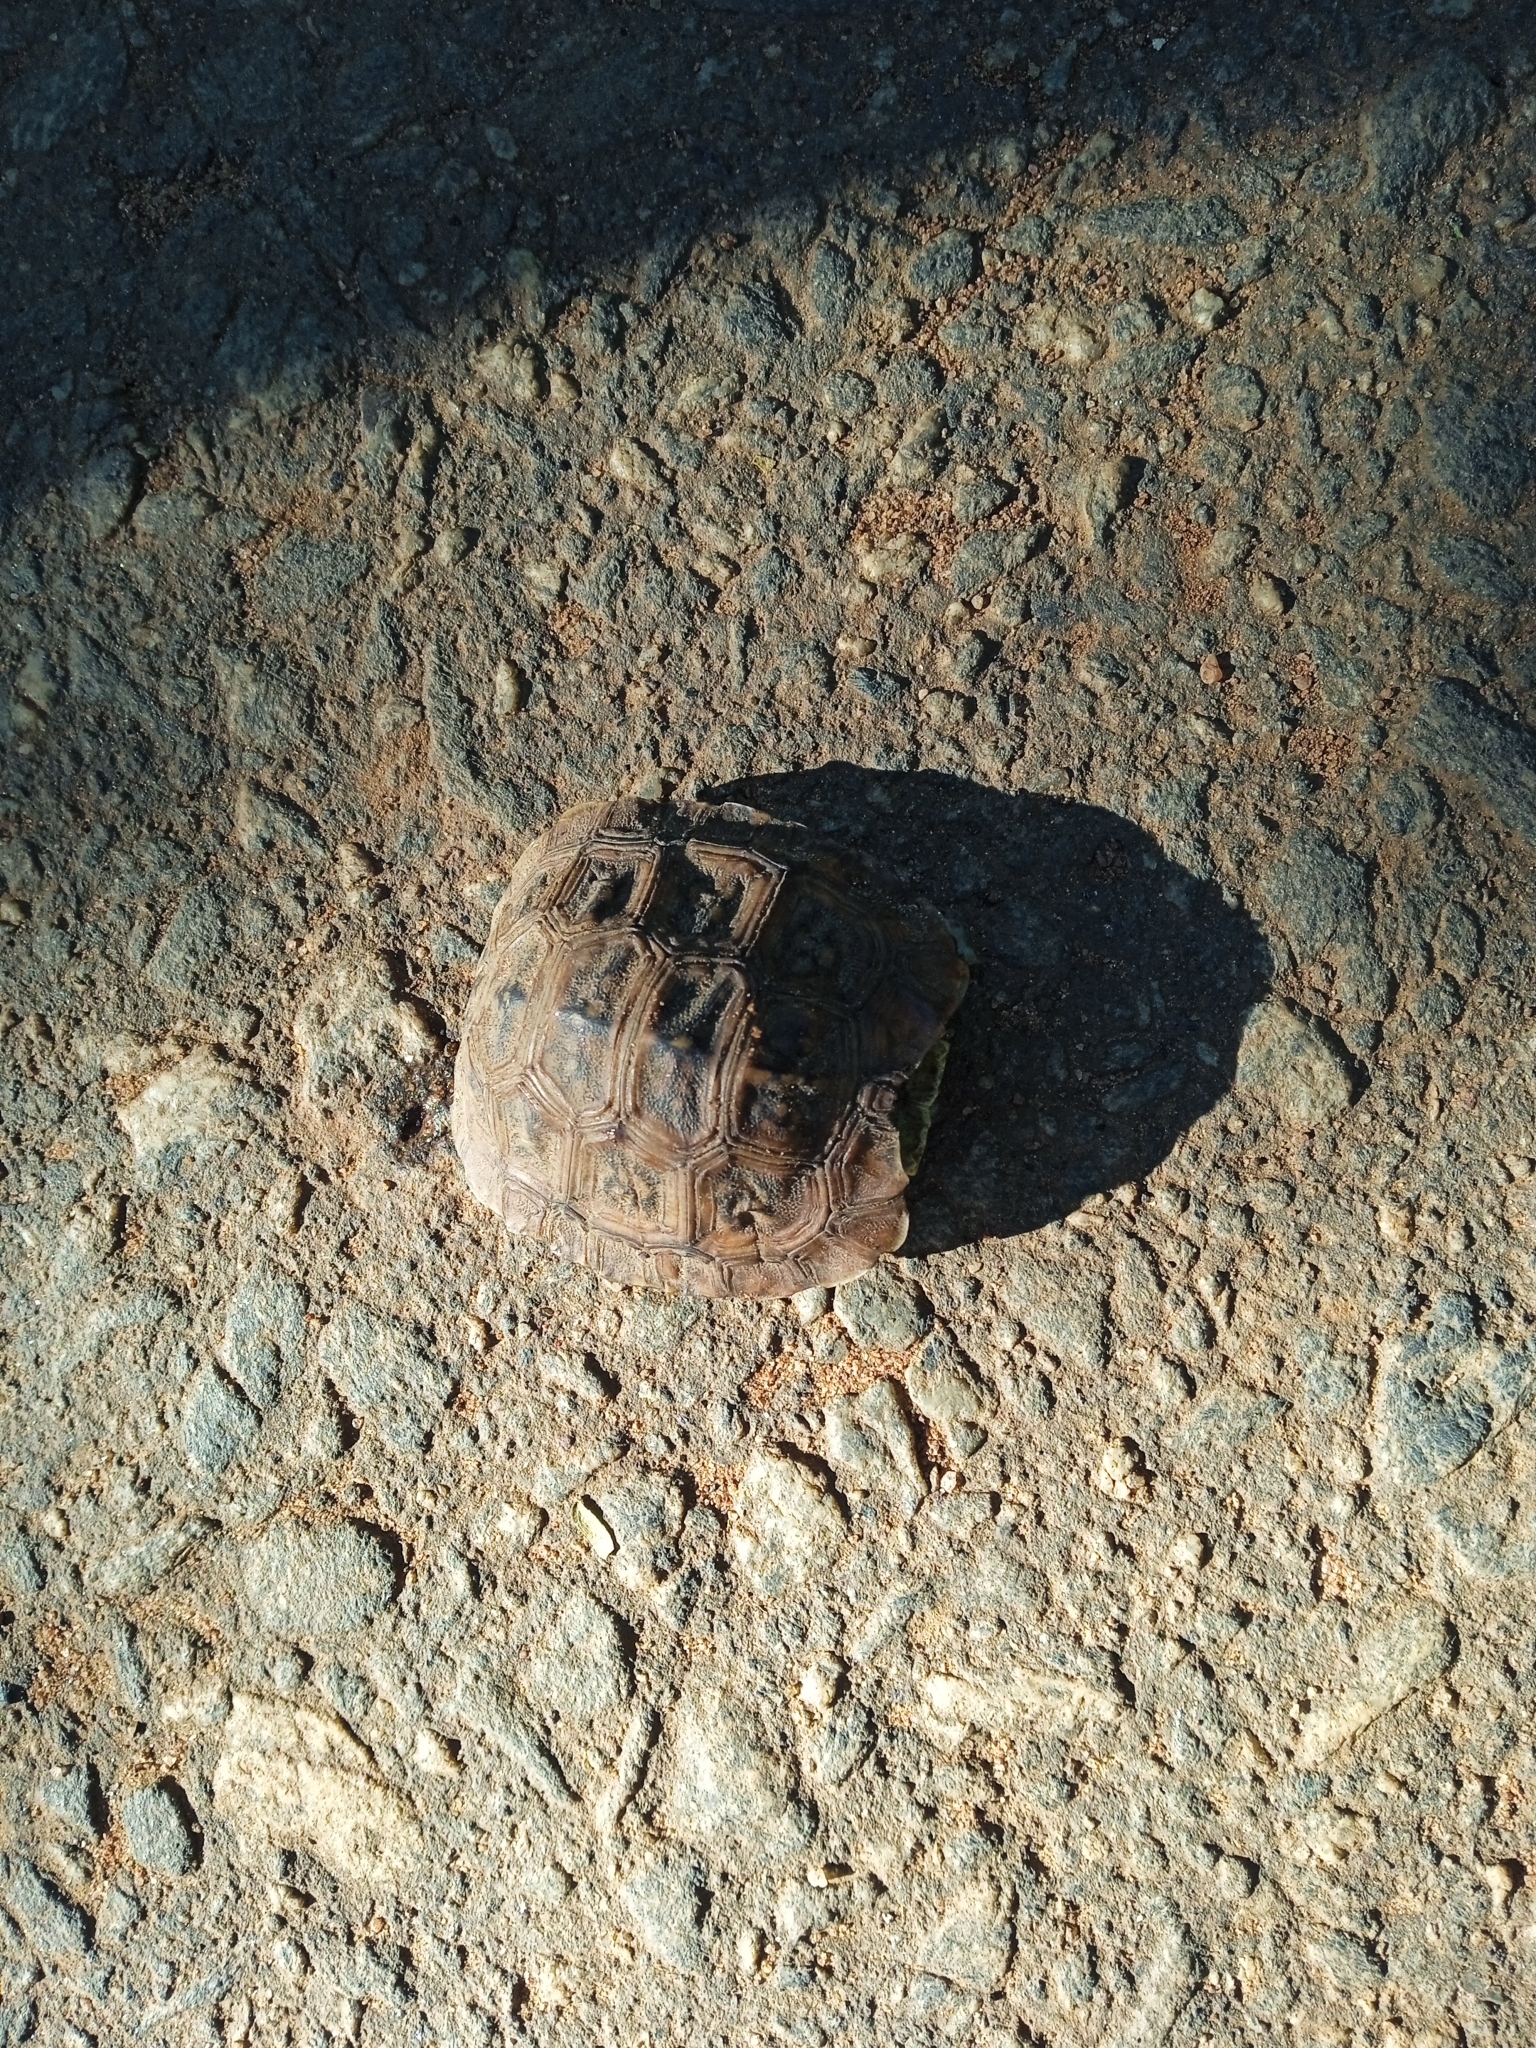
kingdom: Animalia
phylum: Chordata
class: Testudines
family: Testudinidae
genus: Kinixys
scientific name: Kinixys spekii
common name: Speke's hingeback tortoise
